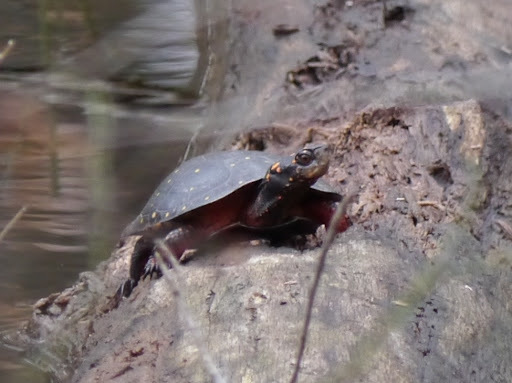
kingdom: Animalia
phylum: Chordata
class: Testudines
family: Emydidae
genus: Clemmys
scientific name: Clemmys guttata
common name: Spotted turtle
